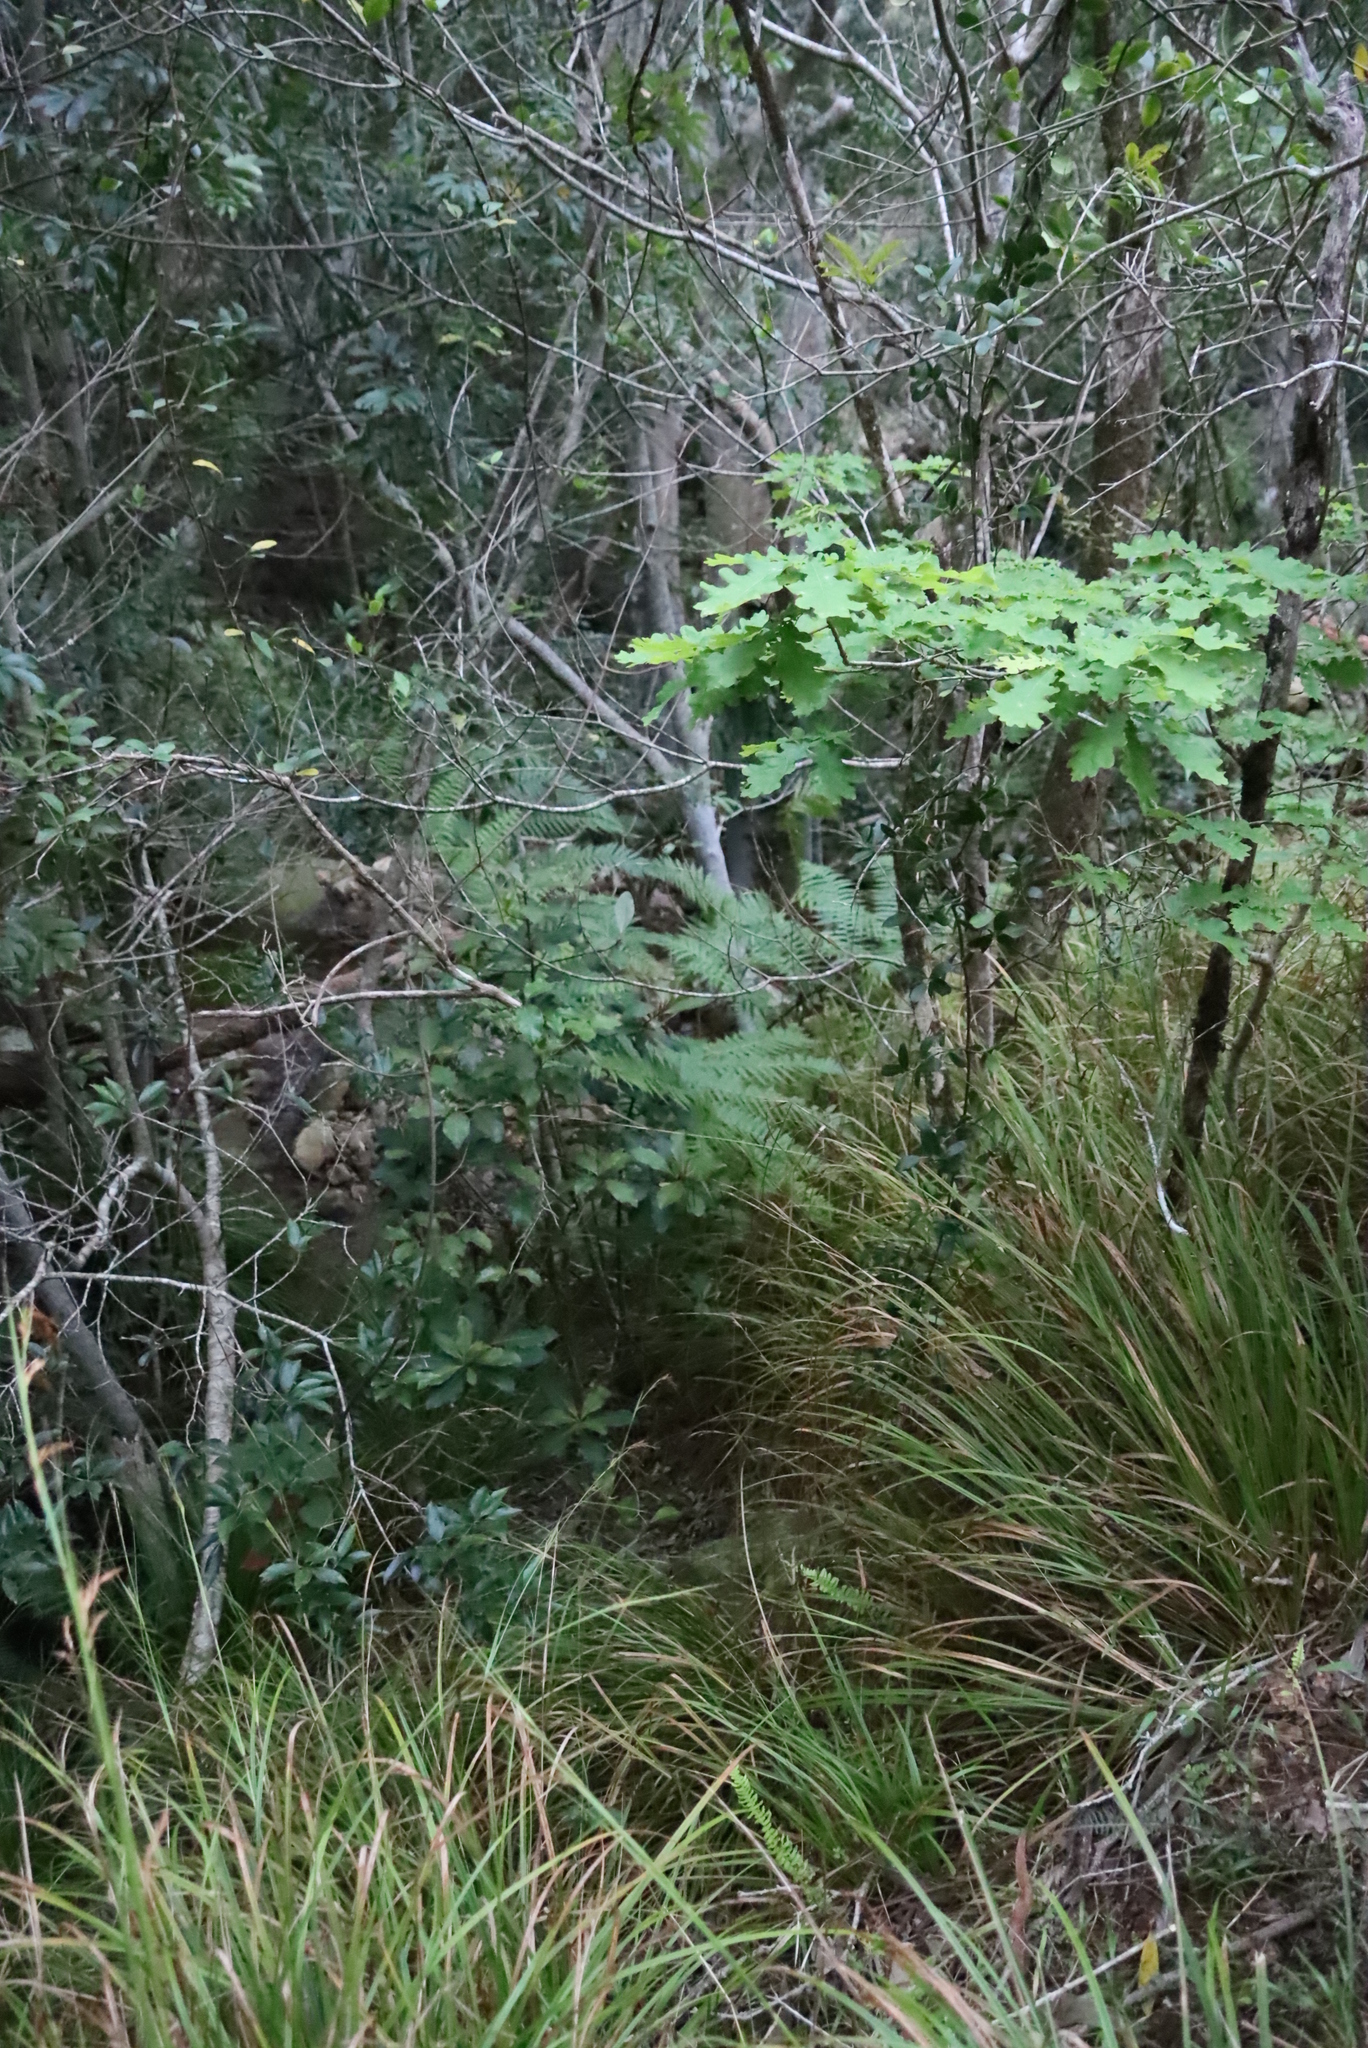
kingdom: Plantae
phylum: Tracheophyta
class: Polypodiopsida
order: Cyatheales
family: Cyatheaceae
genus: Sphaeropteris
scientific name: Sphaeropteris cooperi
